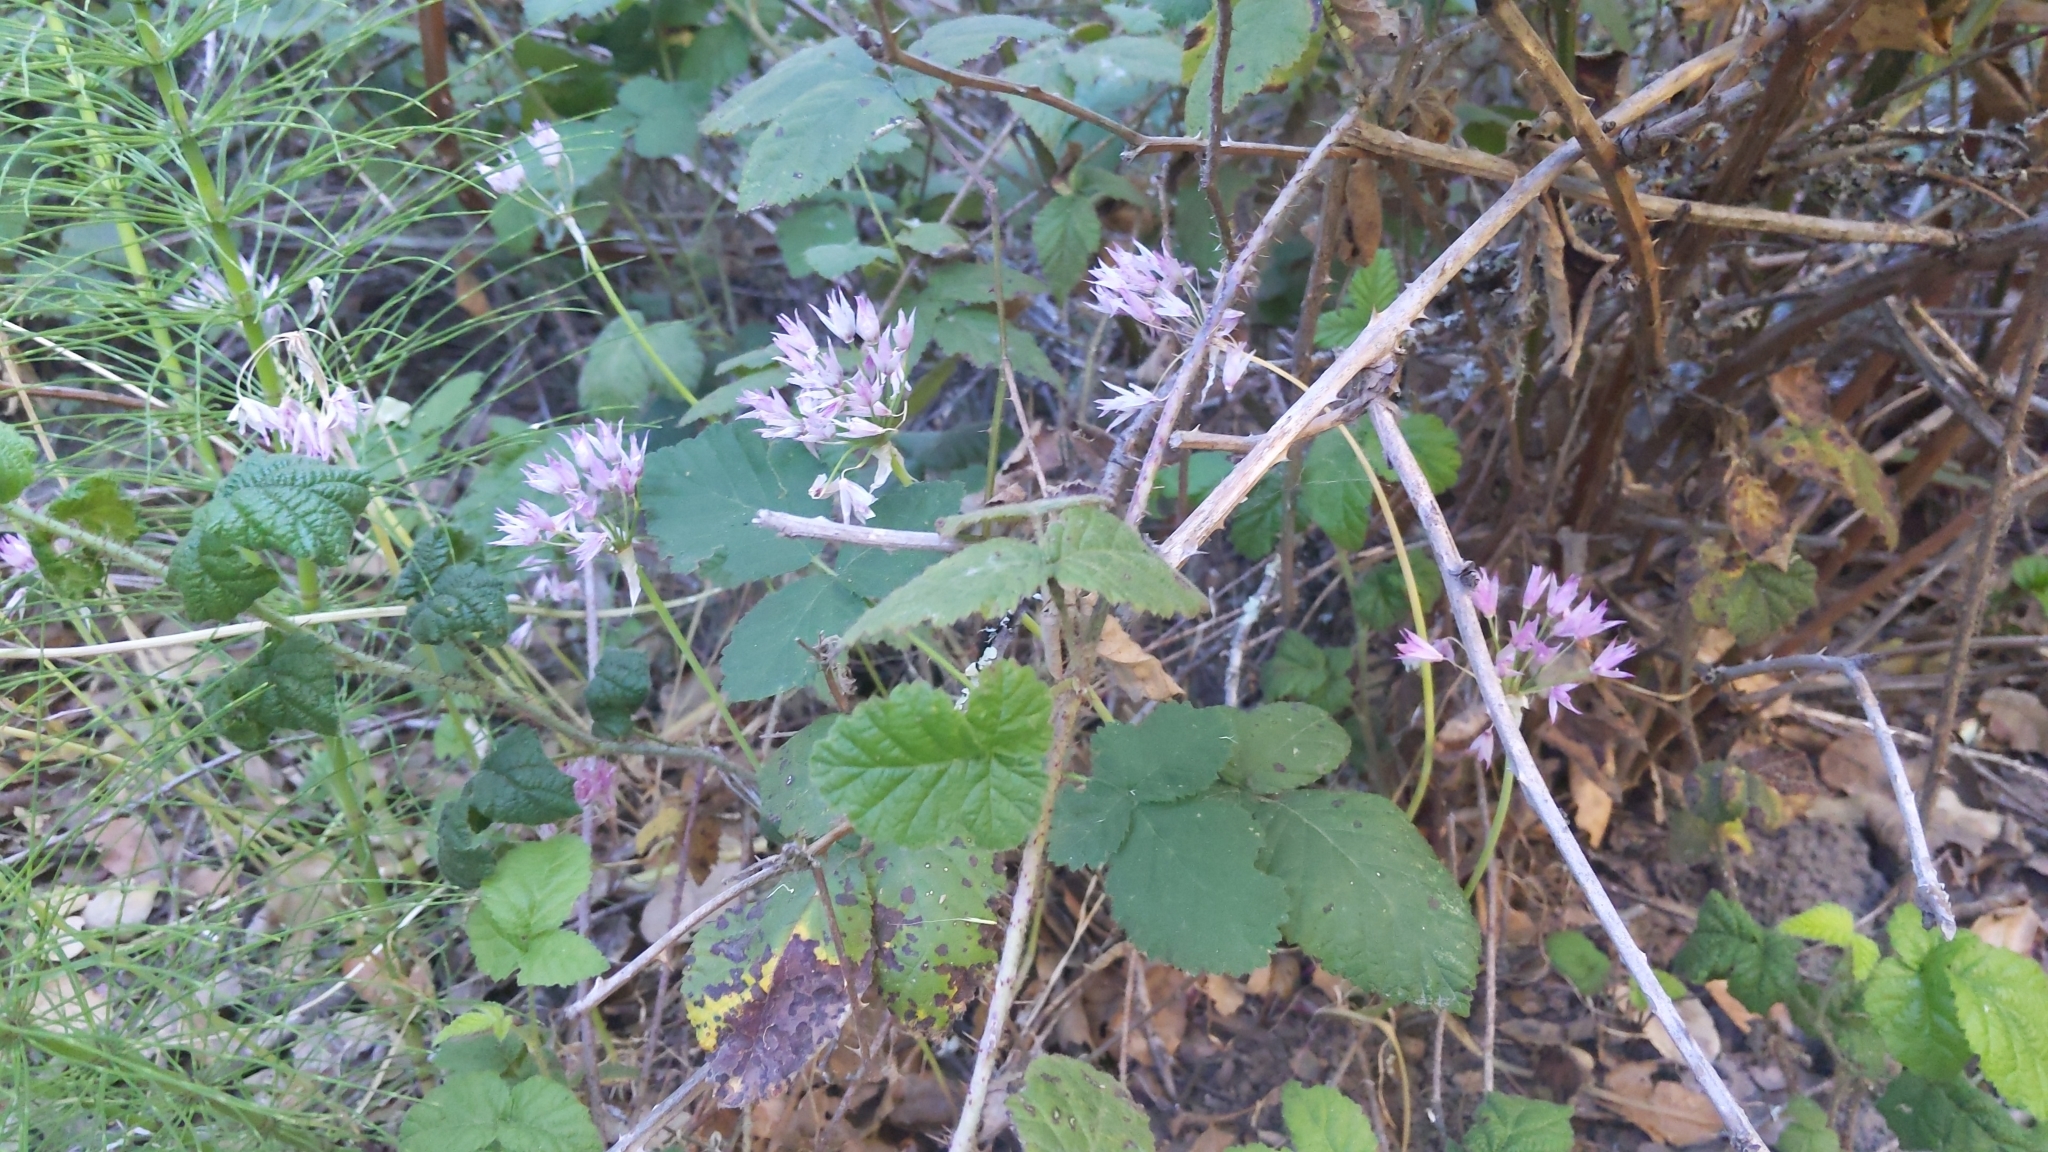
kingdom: Plantae
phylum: Tracheophyta
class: Liliopsida
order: Asparagales
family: Amaryllidaceae
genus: Allium
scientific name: Allium unifolium
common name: American garlic
